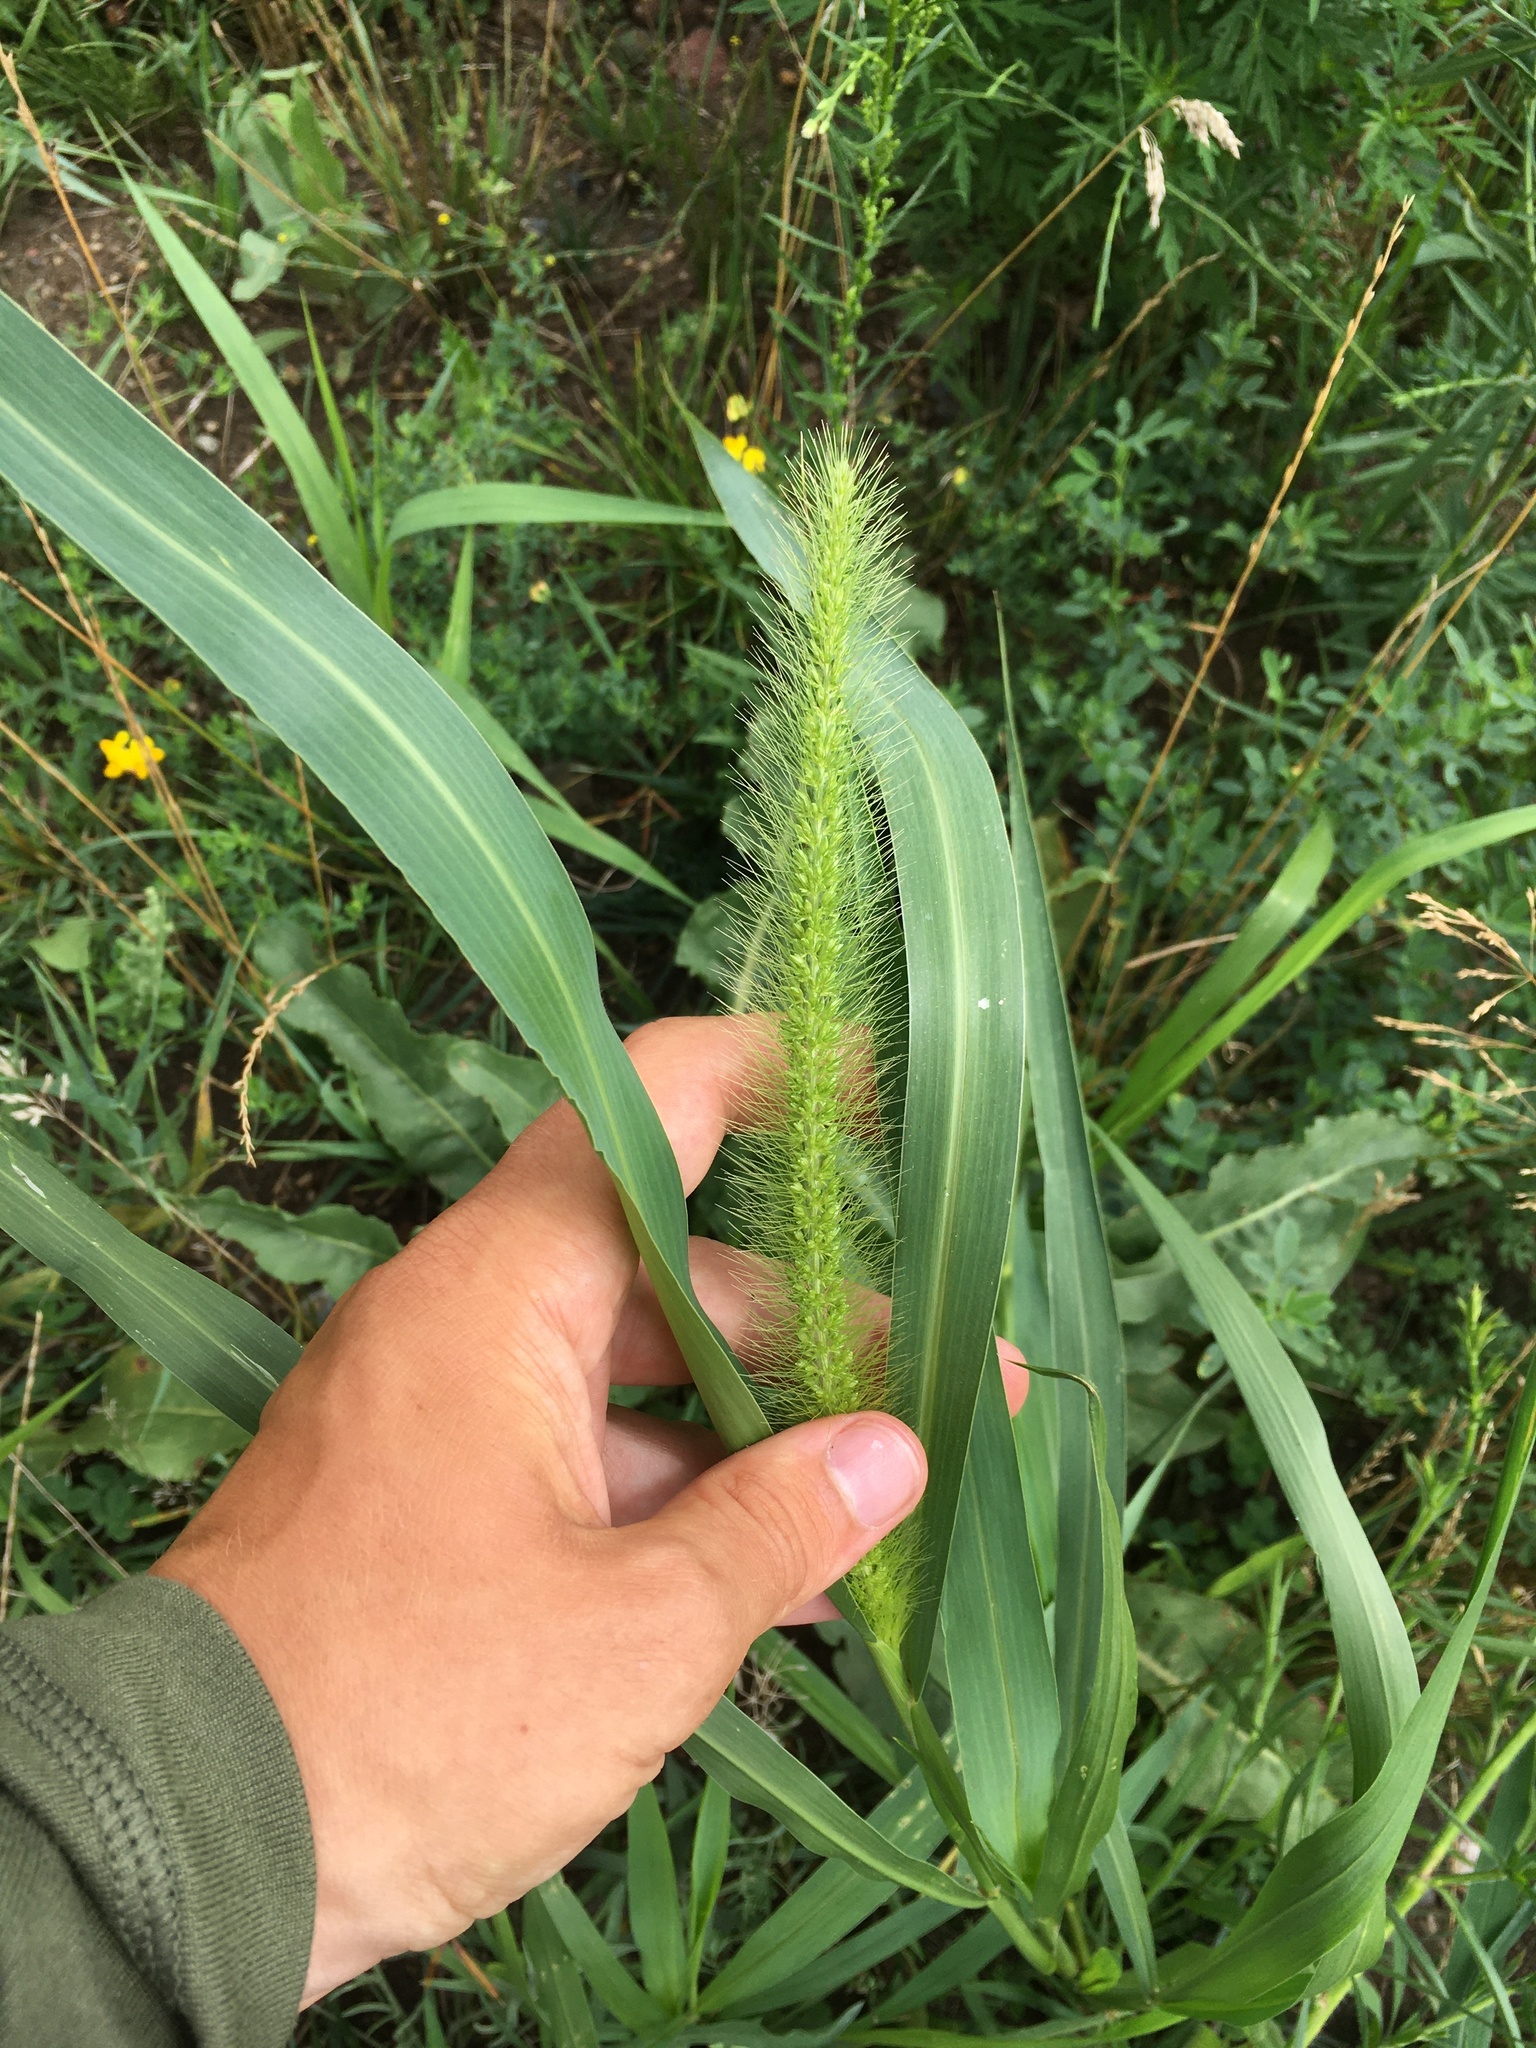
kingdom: Plantae
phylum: Tracheophyta
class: Liliopsida
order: Poales
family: Poaceae
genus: Setaria
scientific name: Setaria faberi
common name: Nodding bristle-grass
